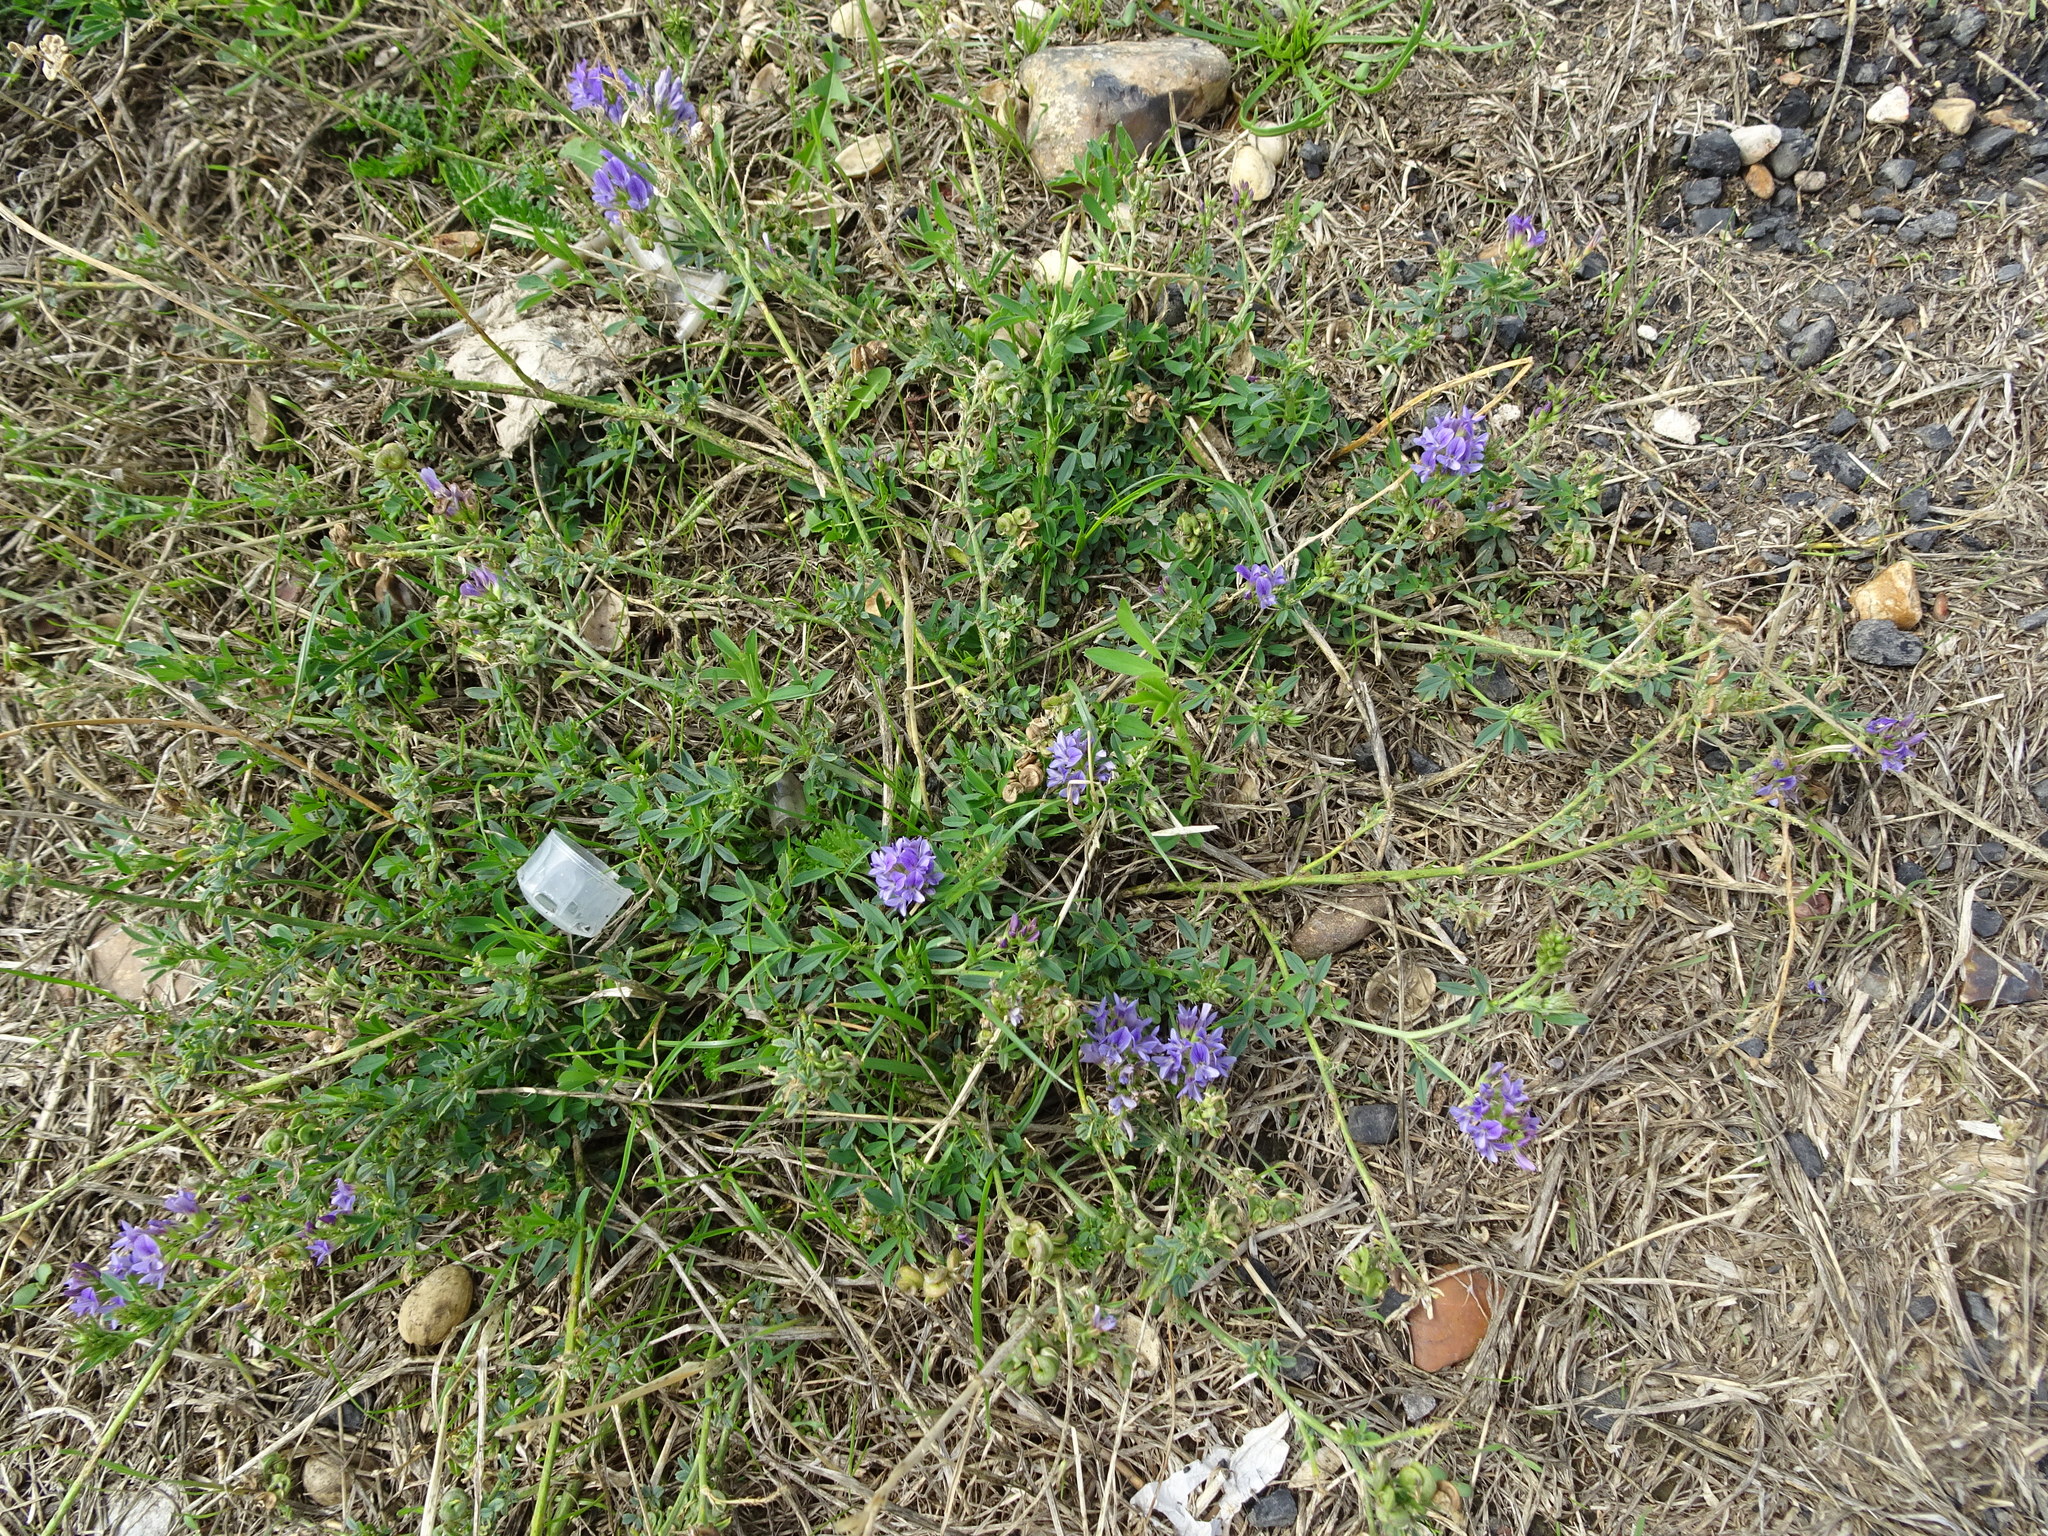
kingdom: Plantae
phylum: Tracheophyta
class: Magnoliopsida
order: Fabales
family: Fabaceae
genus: Medicago
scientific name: Medicago sativa
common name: Alfalfa
